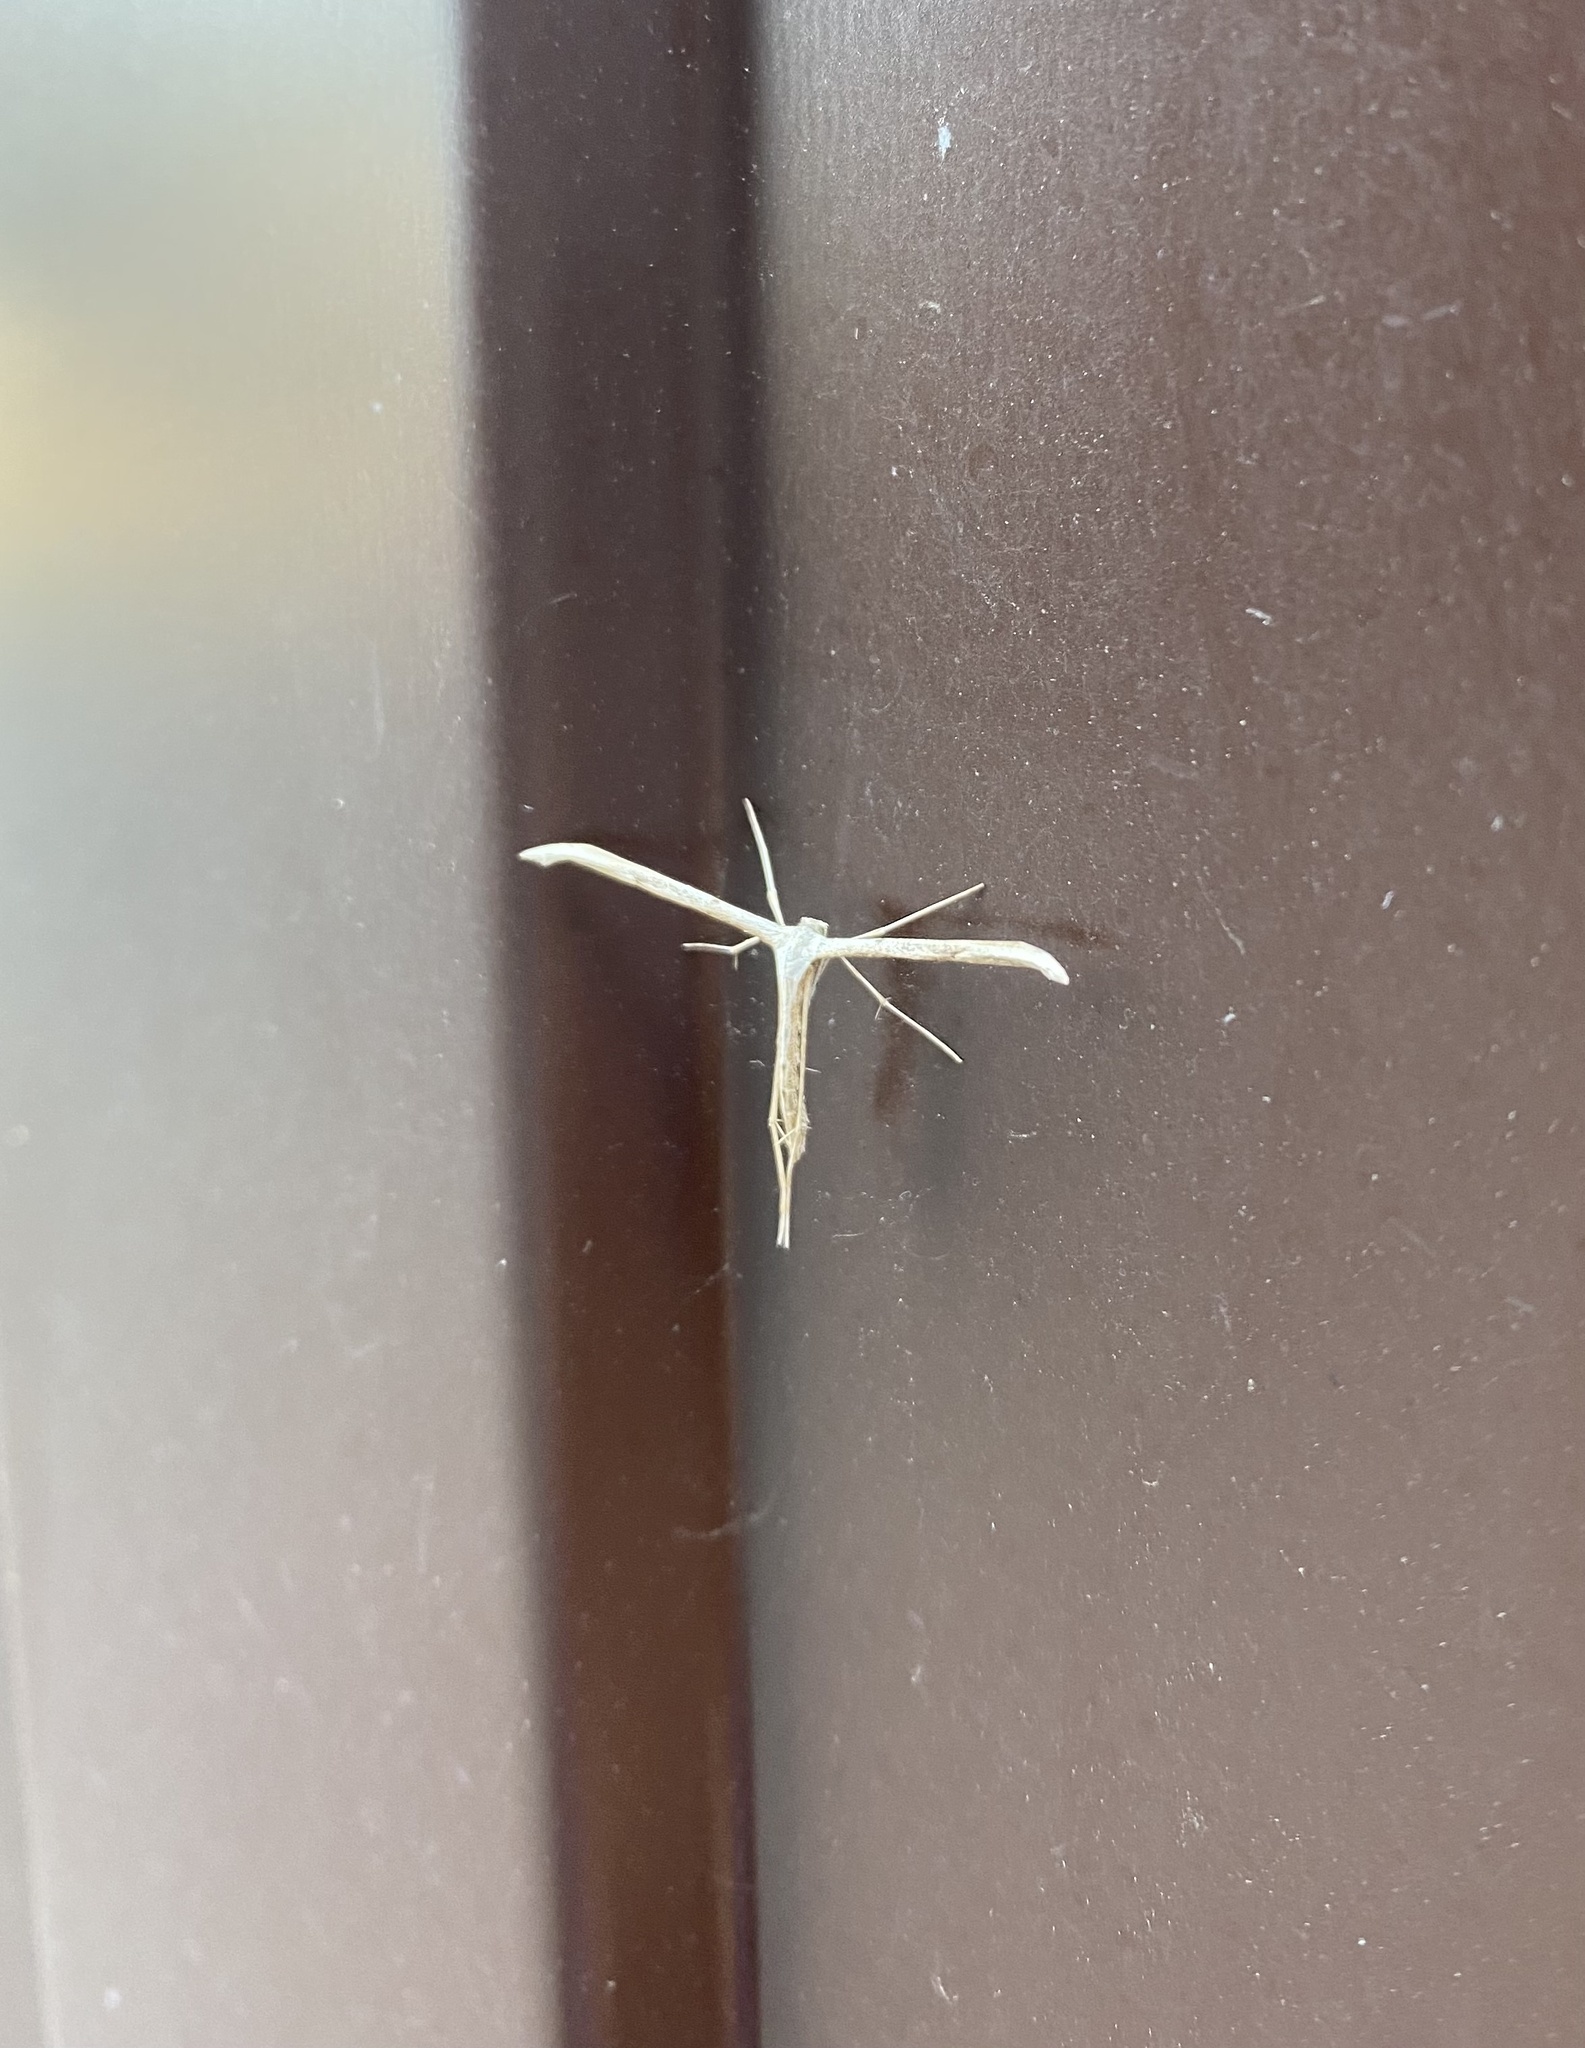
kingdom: Animalia
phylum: Arthropoda
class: Insecta
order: Lepidoptera
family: Pterophoridae
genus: Emmelina
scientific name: Emmelina monodactyla
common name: Common plume
